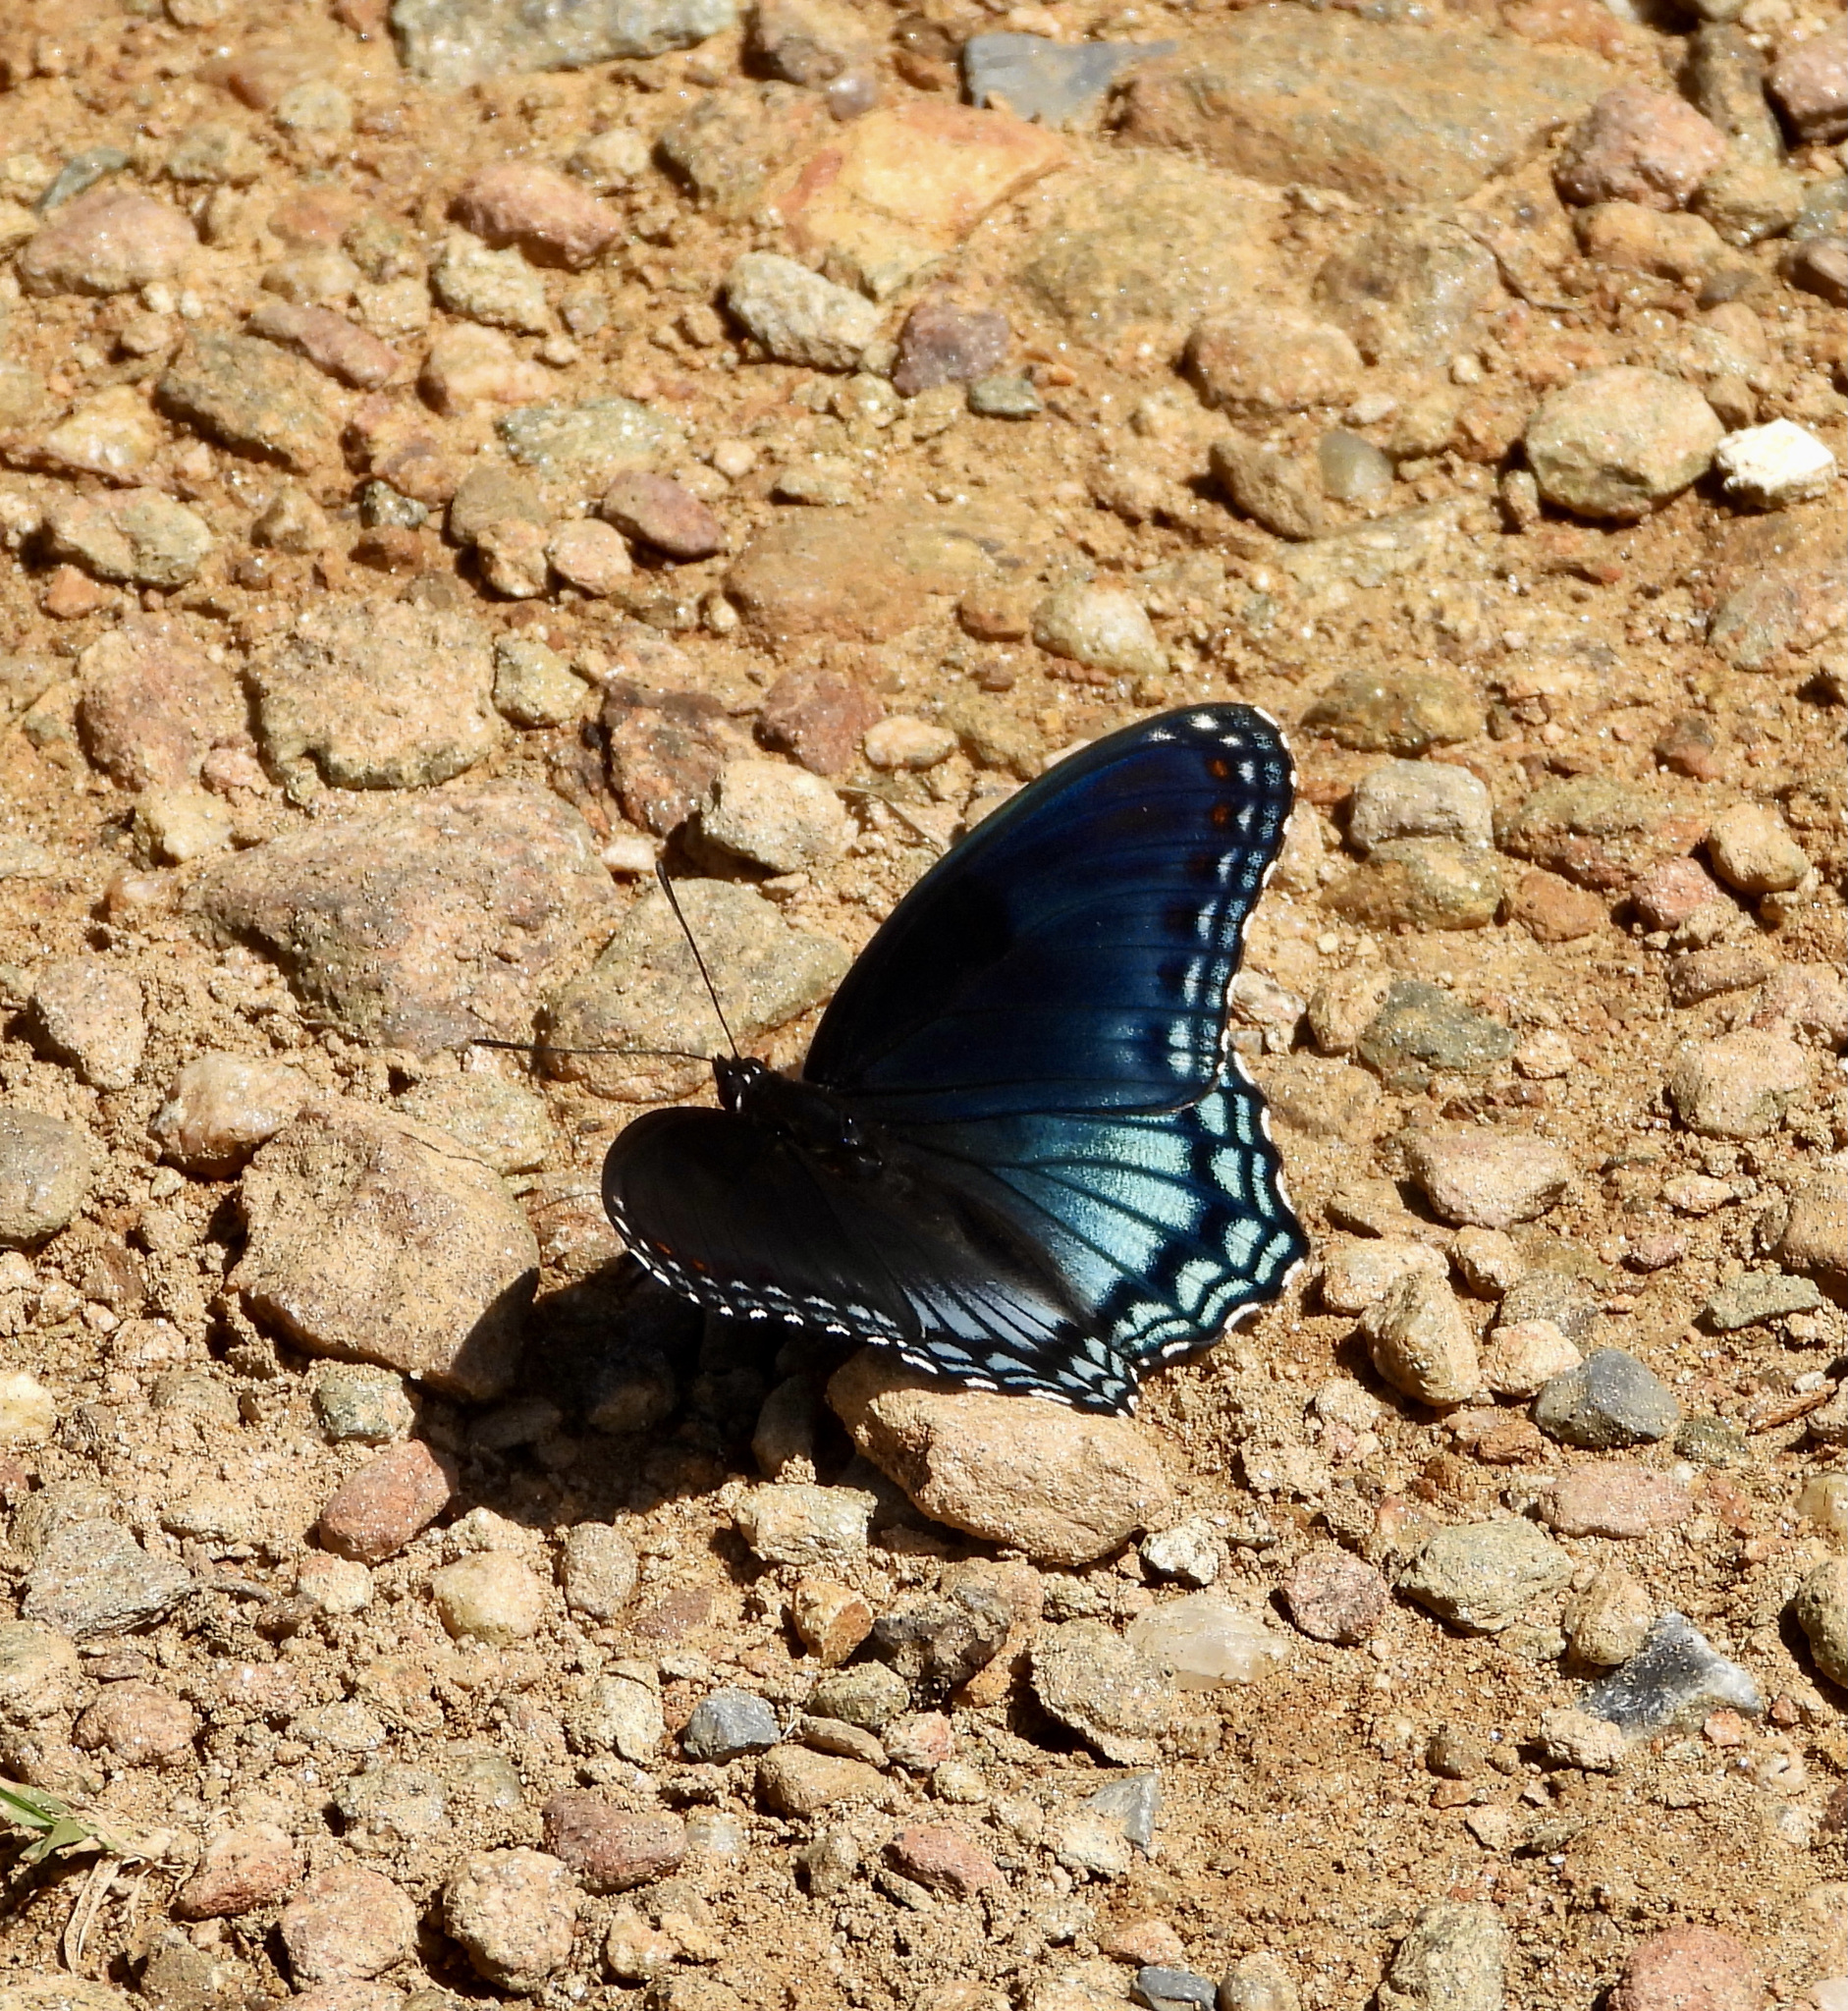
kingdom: Animalia
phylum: Arthropoda
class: Insecta
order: Lepidoptera
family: Nymphalidae
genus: Limenitis
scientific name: Limenitis astyanax
